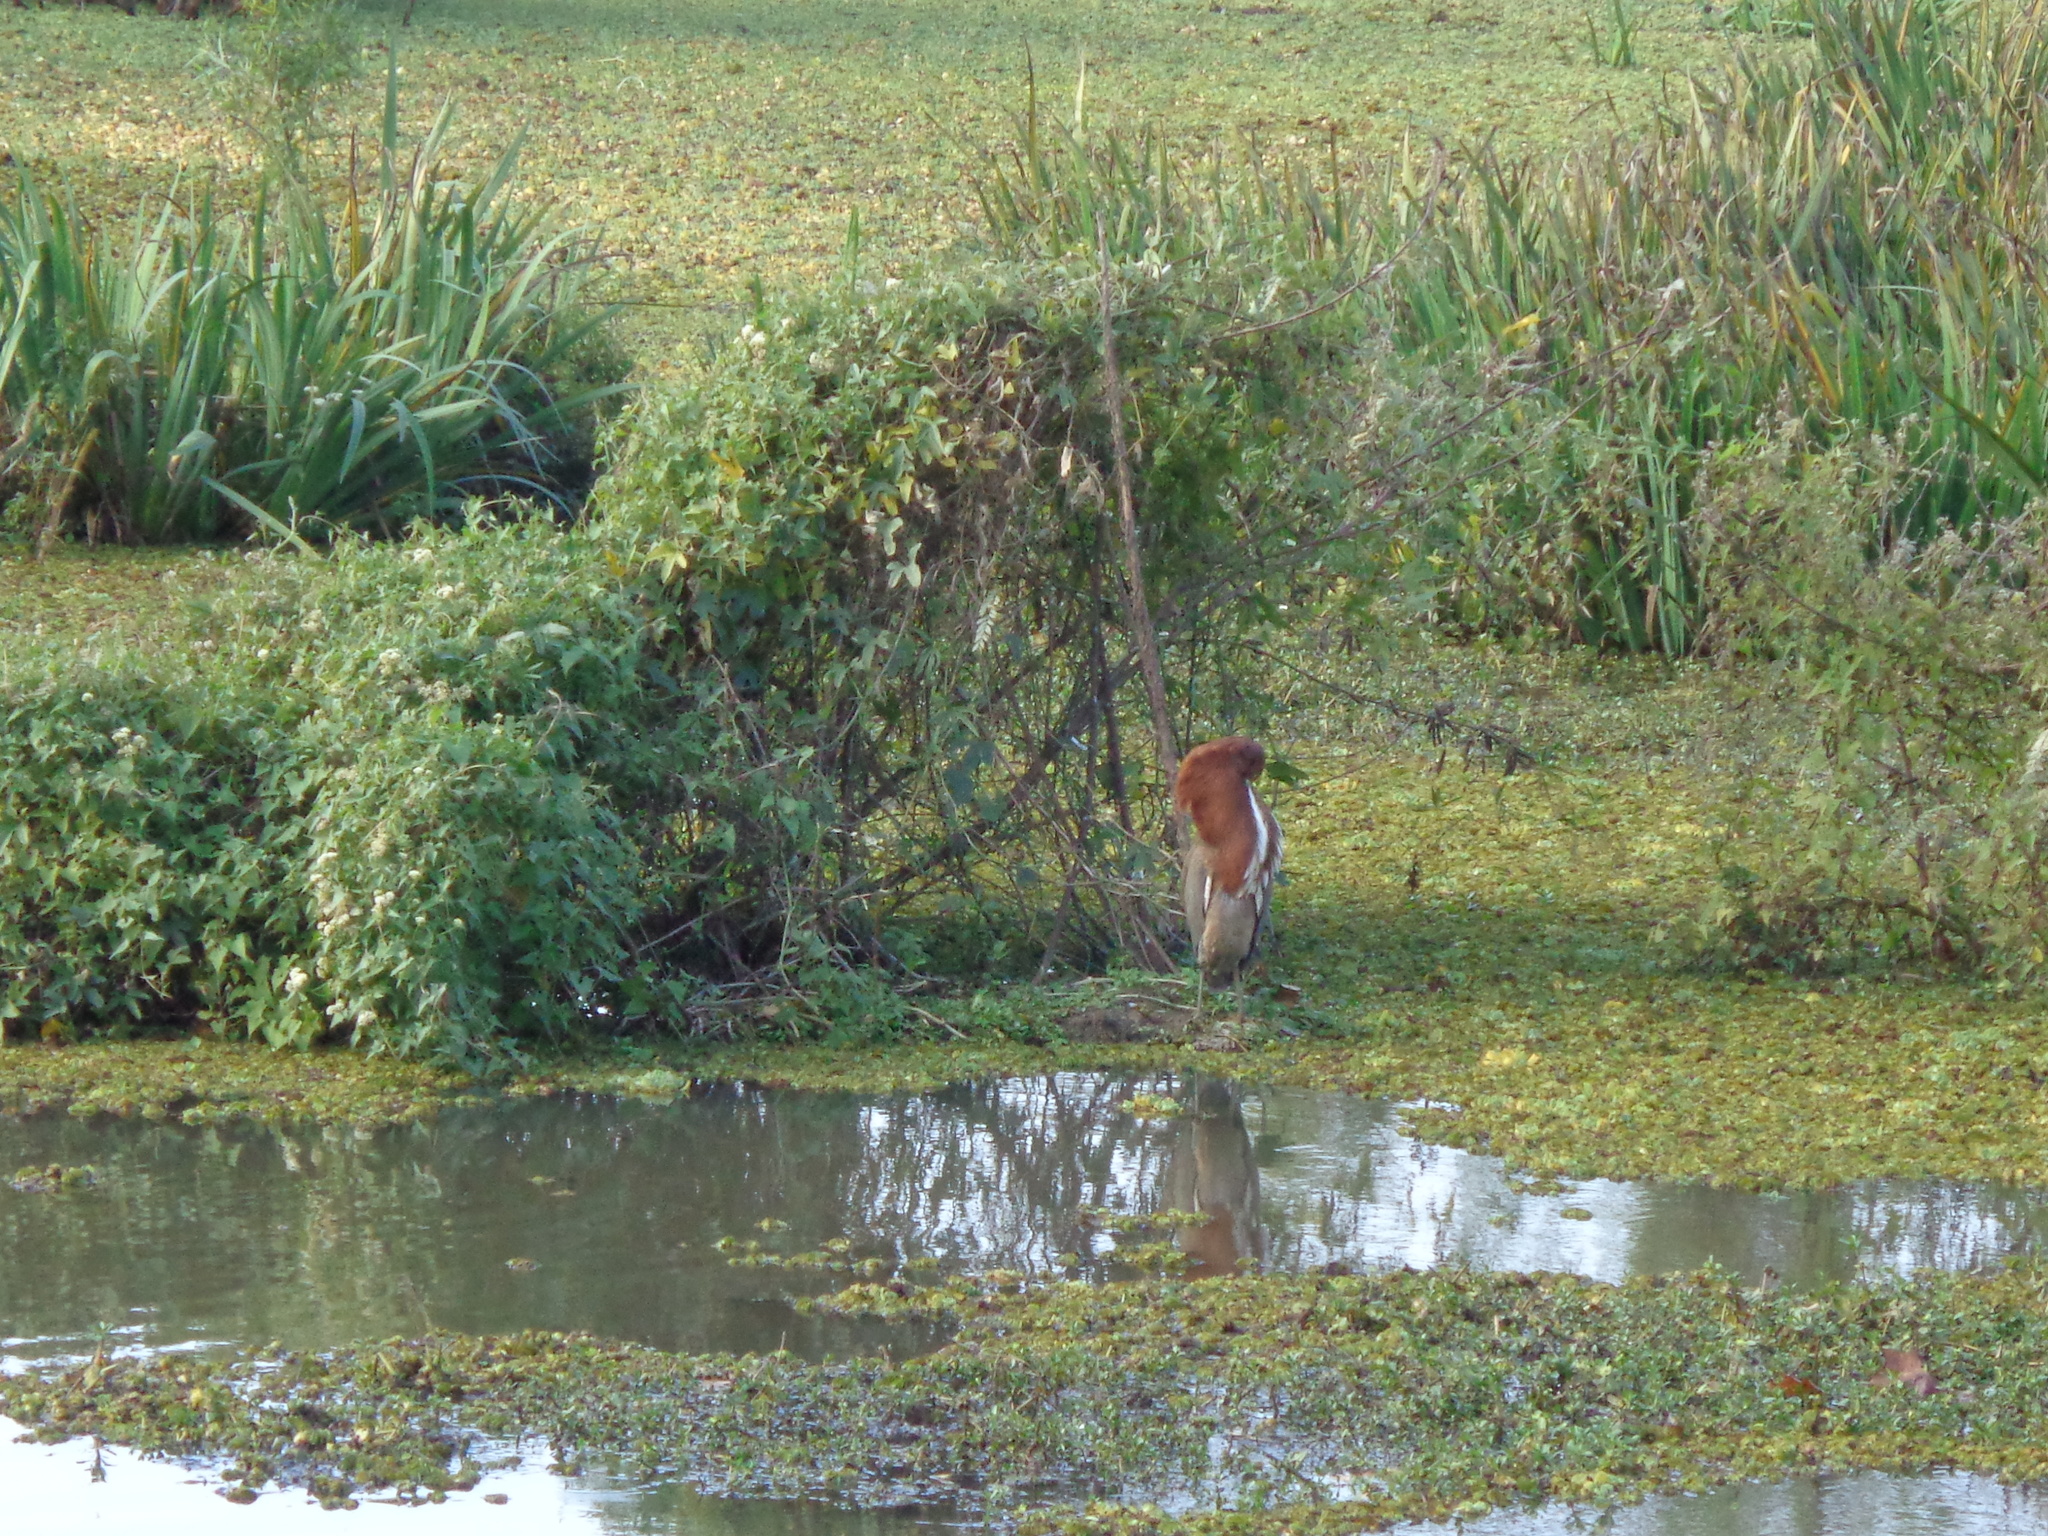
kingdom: Animalia
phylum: Chordata
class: Aves
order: Pelecaniformes
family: Ardeidae
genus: Tigrisoma
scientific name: Tigrisoma lineatum
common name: Rufescent tiger-heron
